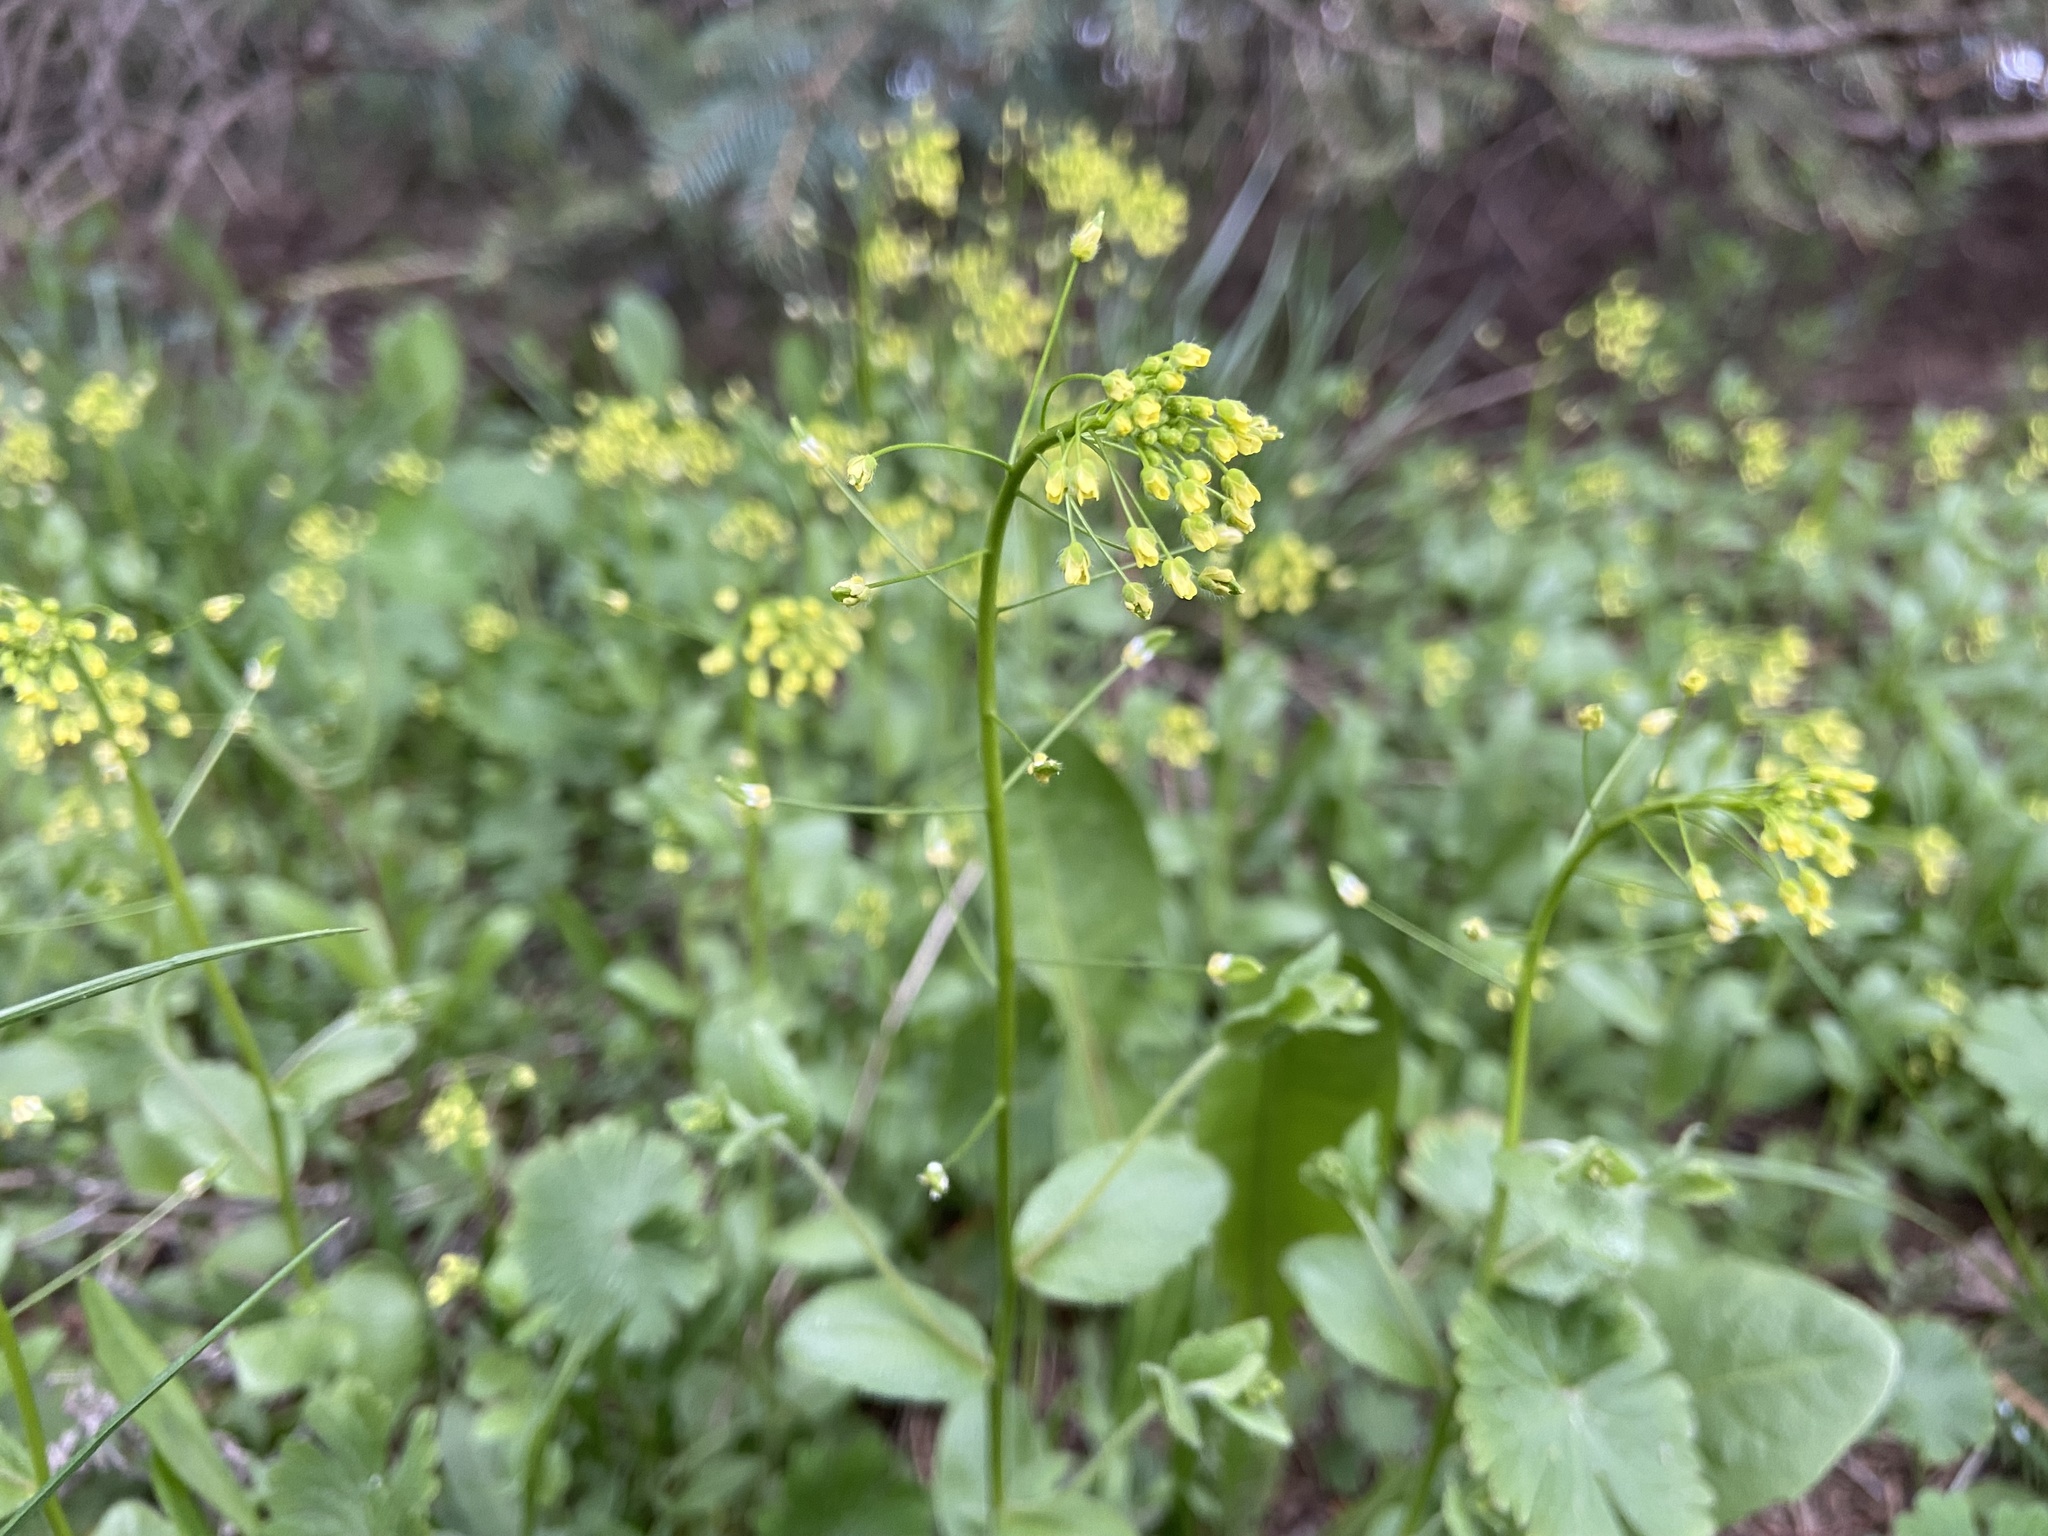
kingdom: Plantae
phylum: Tracheophyta
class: Magnoliopsida
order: Brassicales
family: Brassicaceae
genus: Draba
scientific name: Draba nemorosa
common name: Wood whitlow-grass
